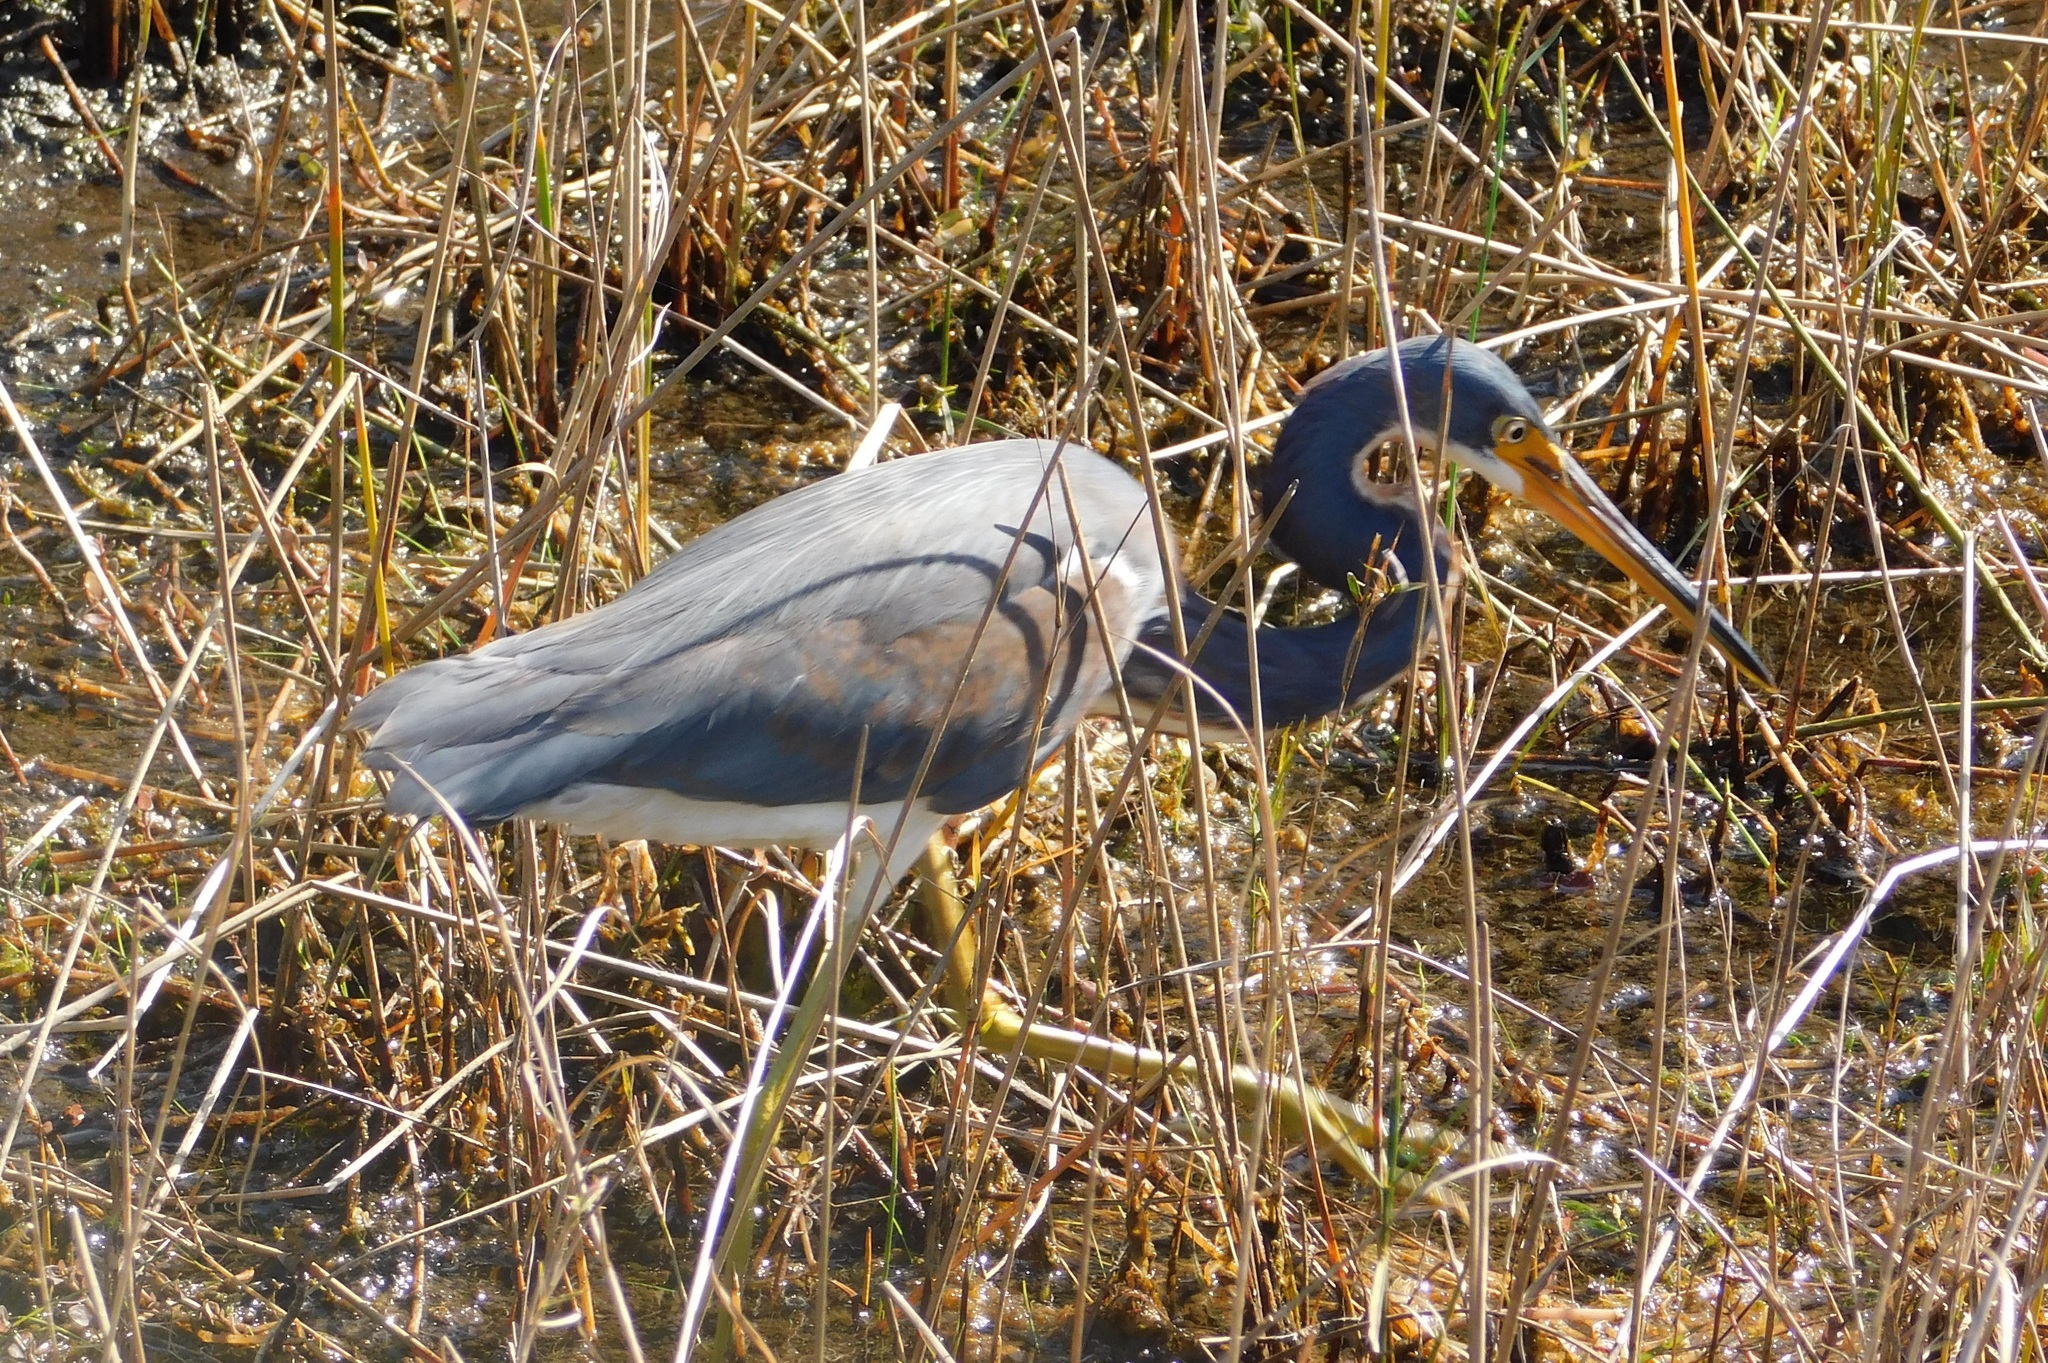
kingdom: Animalia
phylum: Chordata
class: Aves
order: Pelecaniformes
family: Ardeidae
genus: Egretta
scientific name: Egretta tricolor
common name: Tricolored heron
